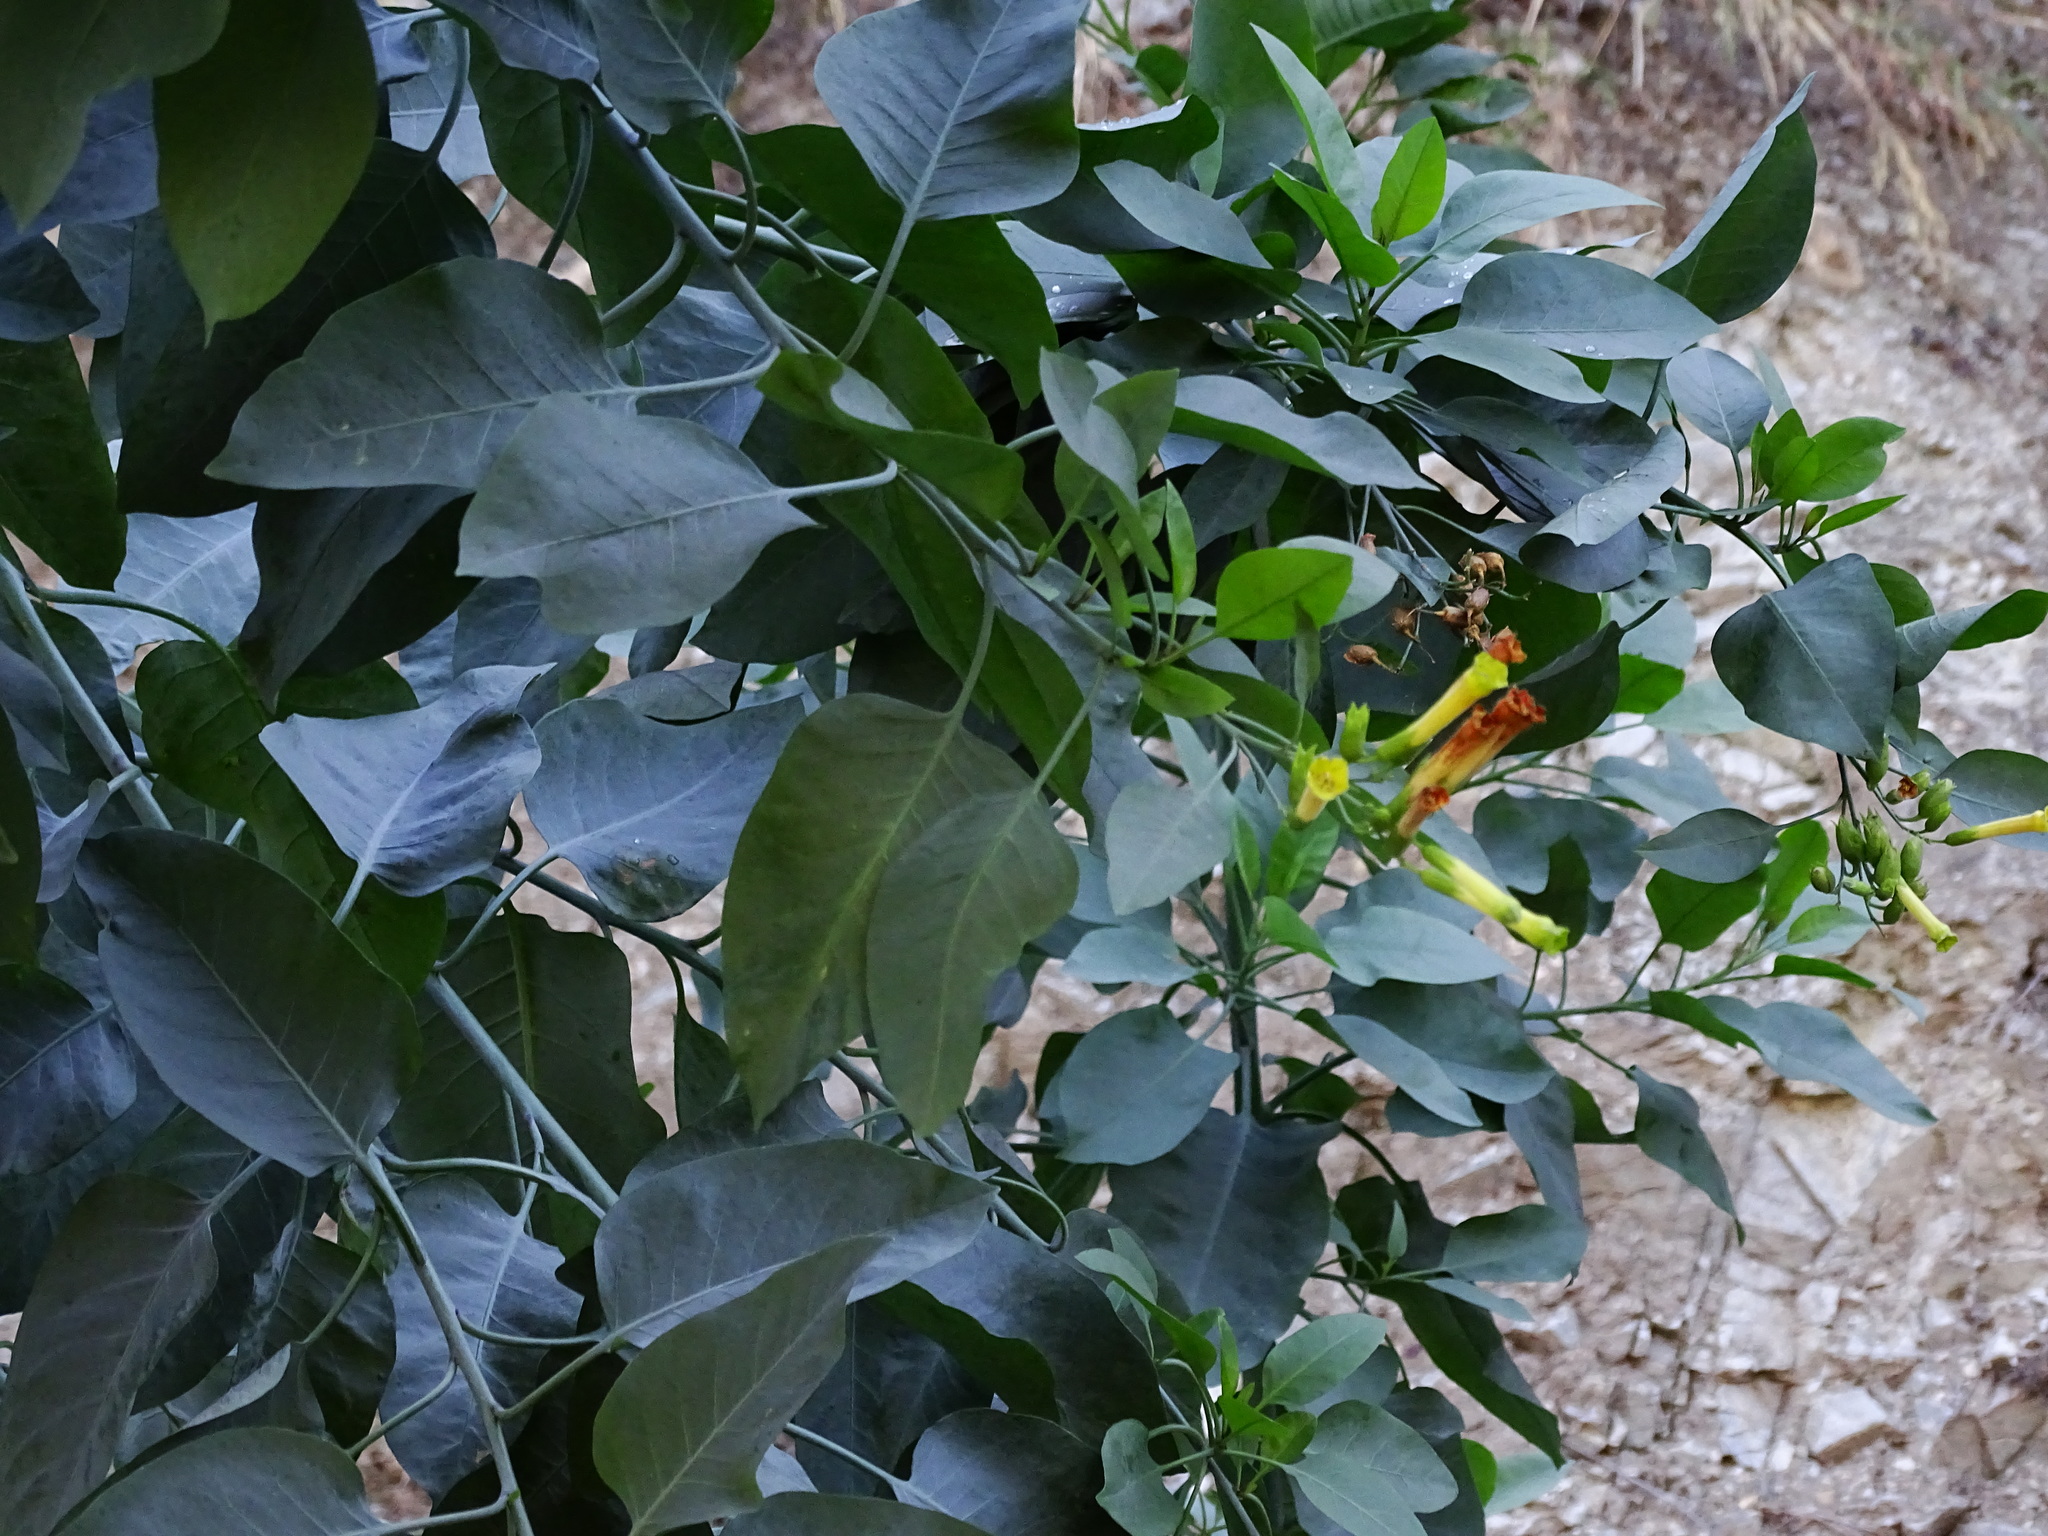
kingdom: Plantae
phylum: Tracheophyta
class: Magnoliopsida
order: Solanales
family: Solanaceae
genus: Nicotiana
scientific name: Nicotiana glauca
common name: Tree tobacco
